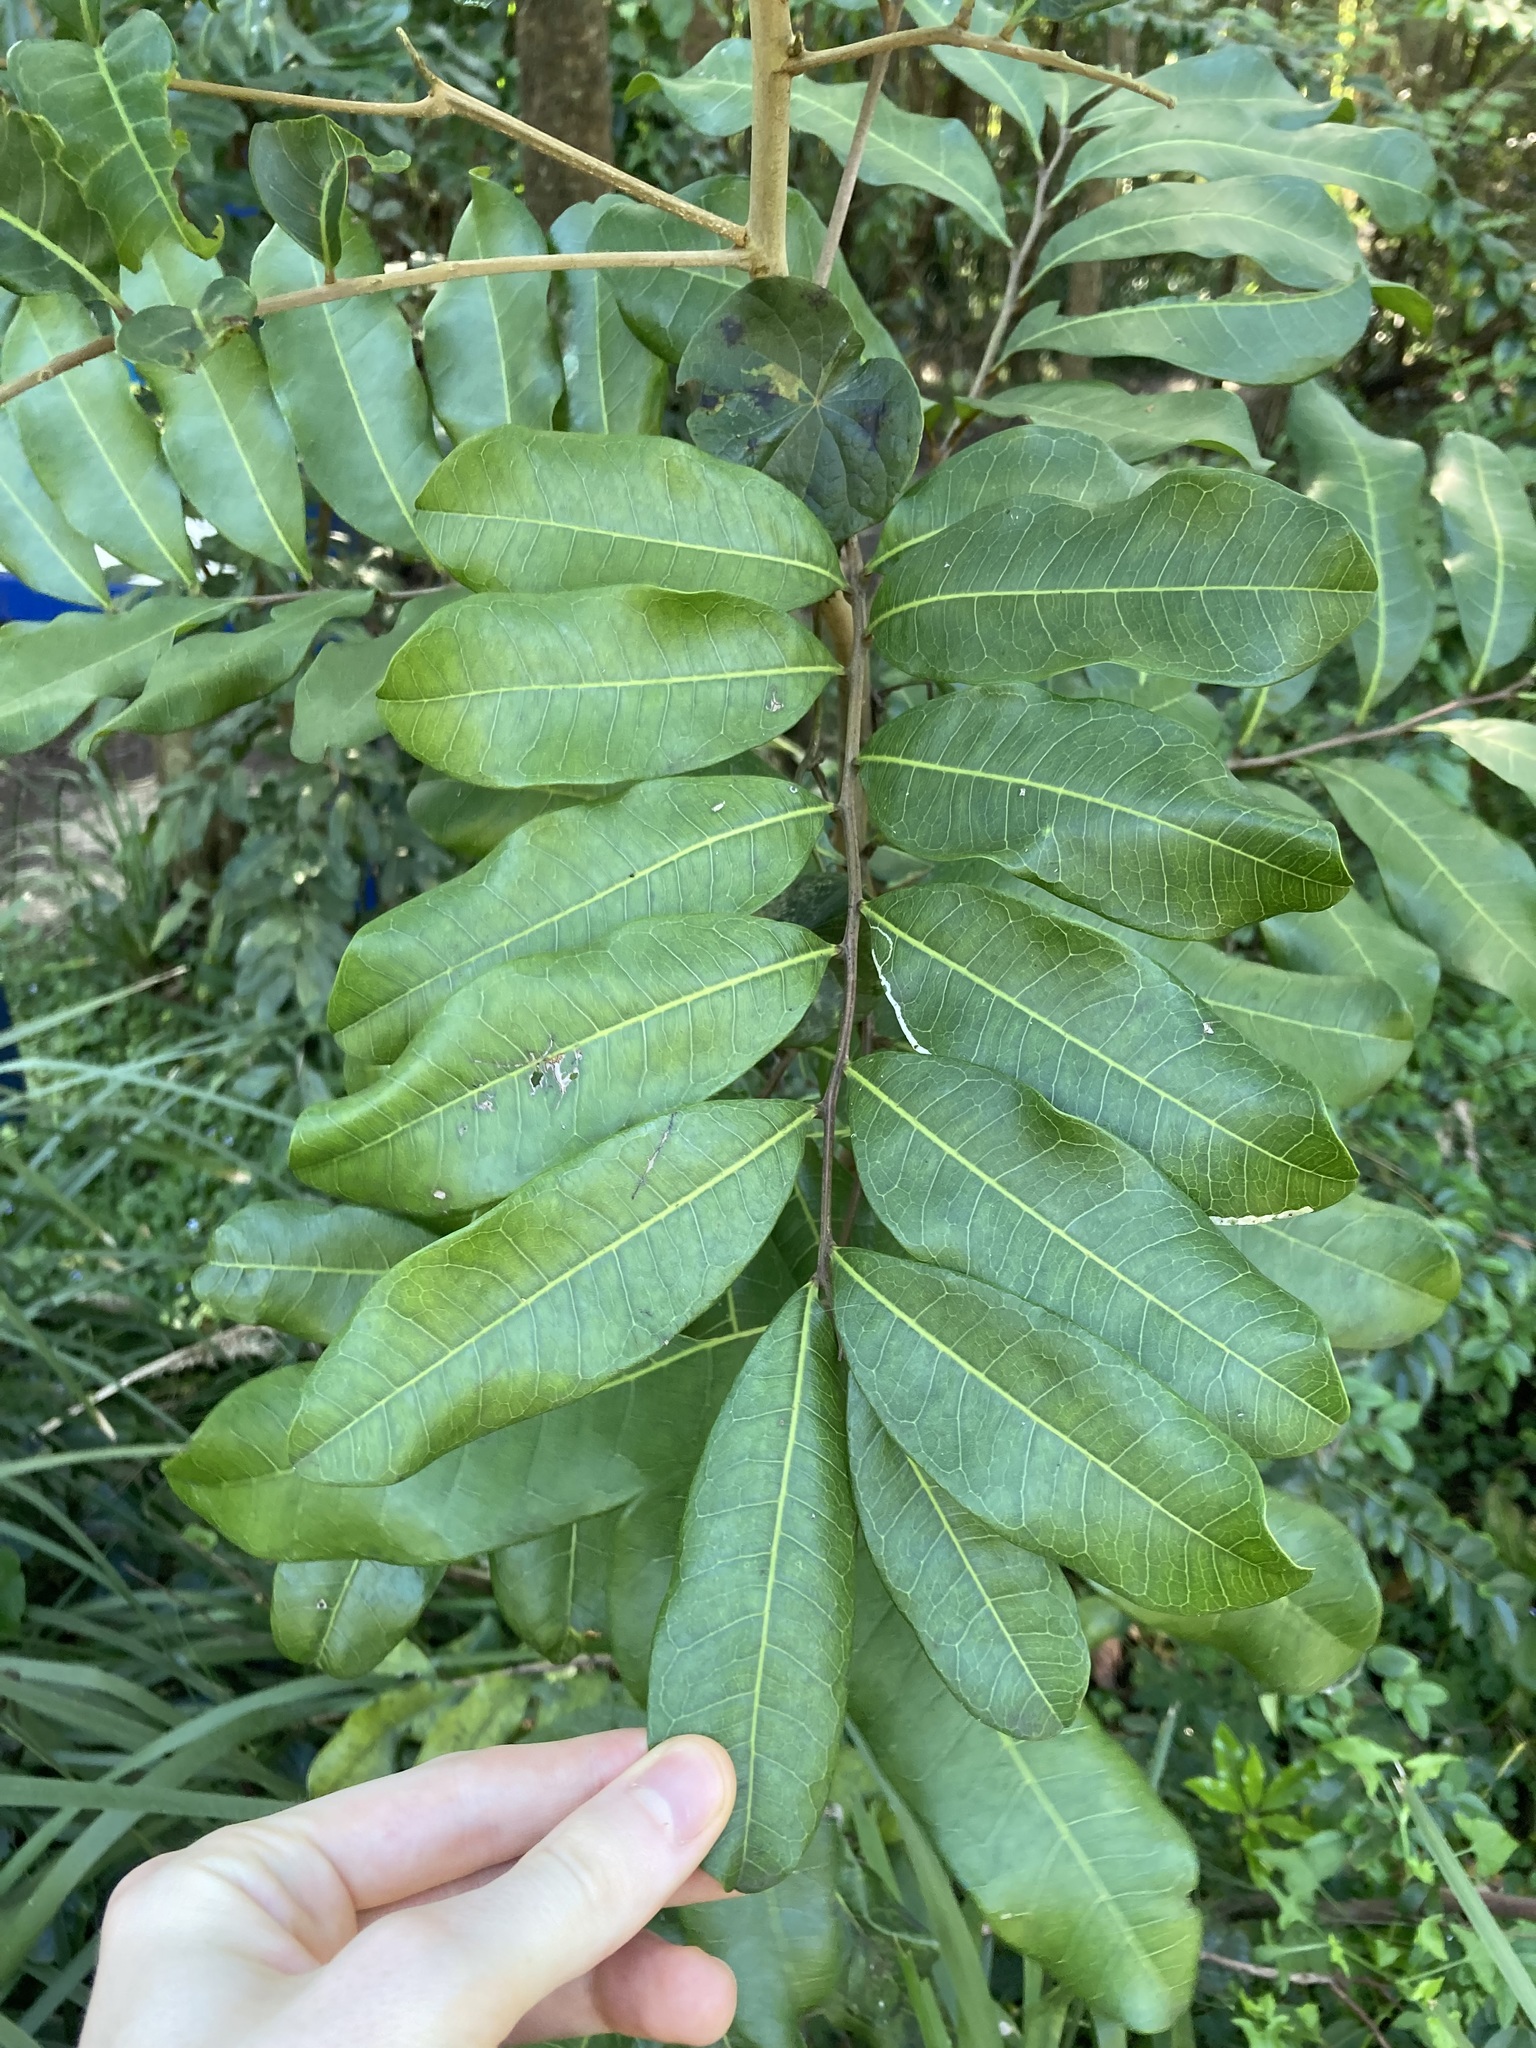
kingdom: Plantae
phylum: Tracheophyta
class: Magnoliopsida
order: Sapindales
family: Sapindaceae
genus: Cupaniopsis
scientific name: Cupaniopsis anacardioides
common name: Carrotwood
